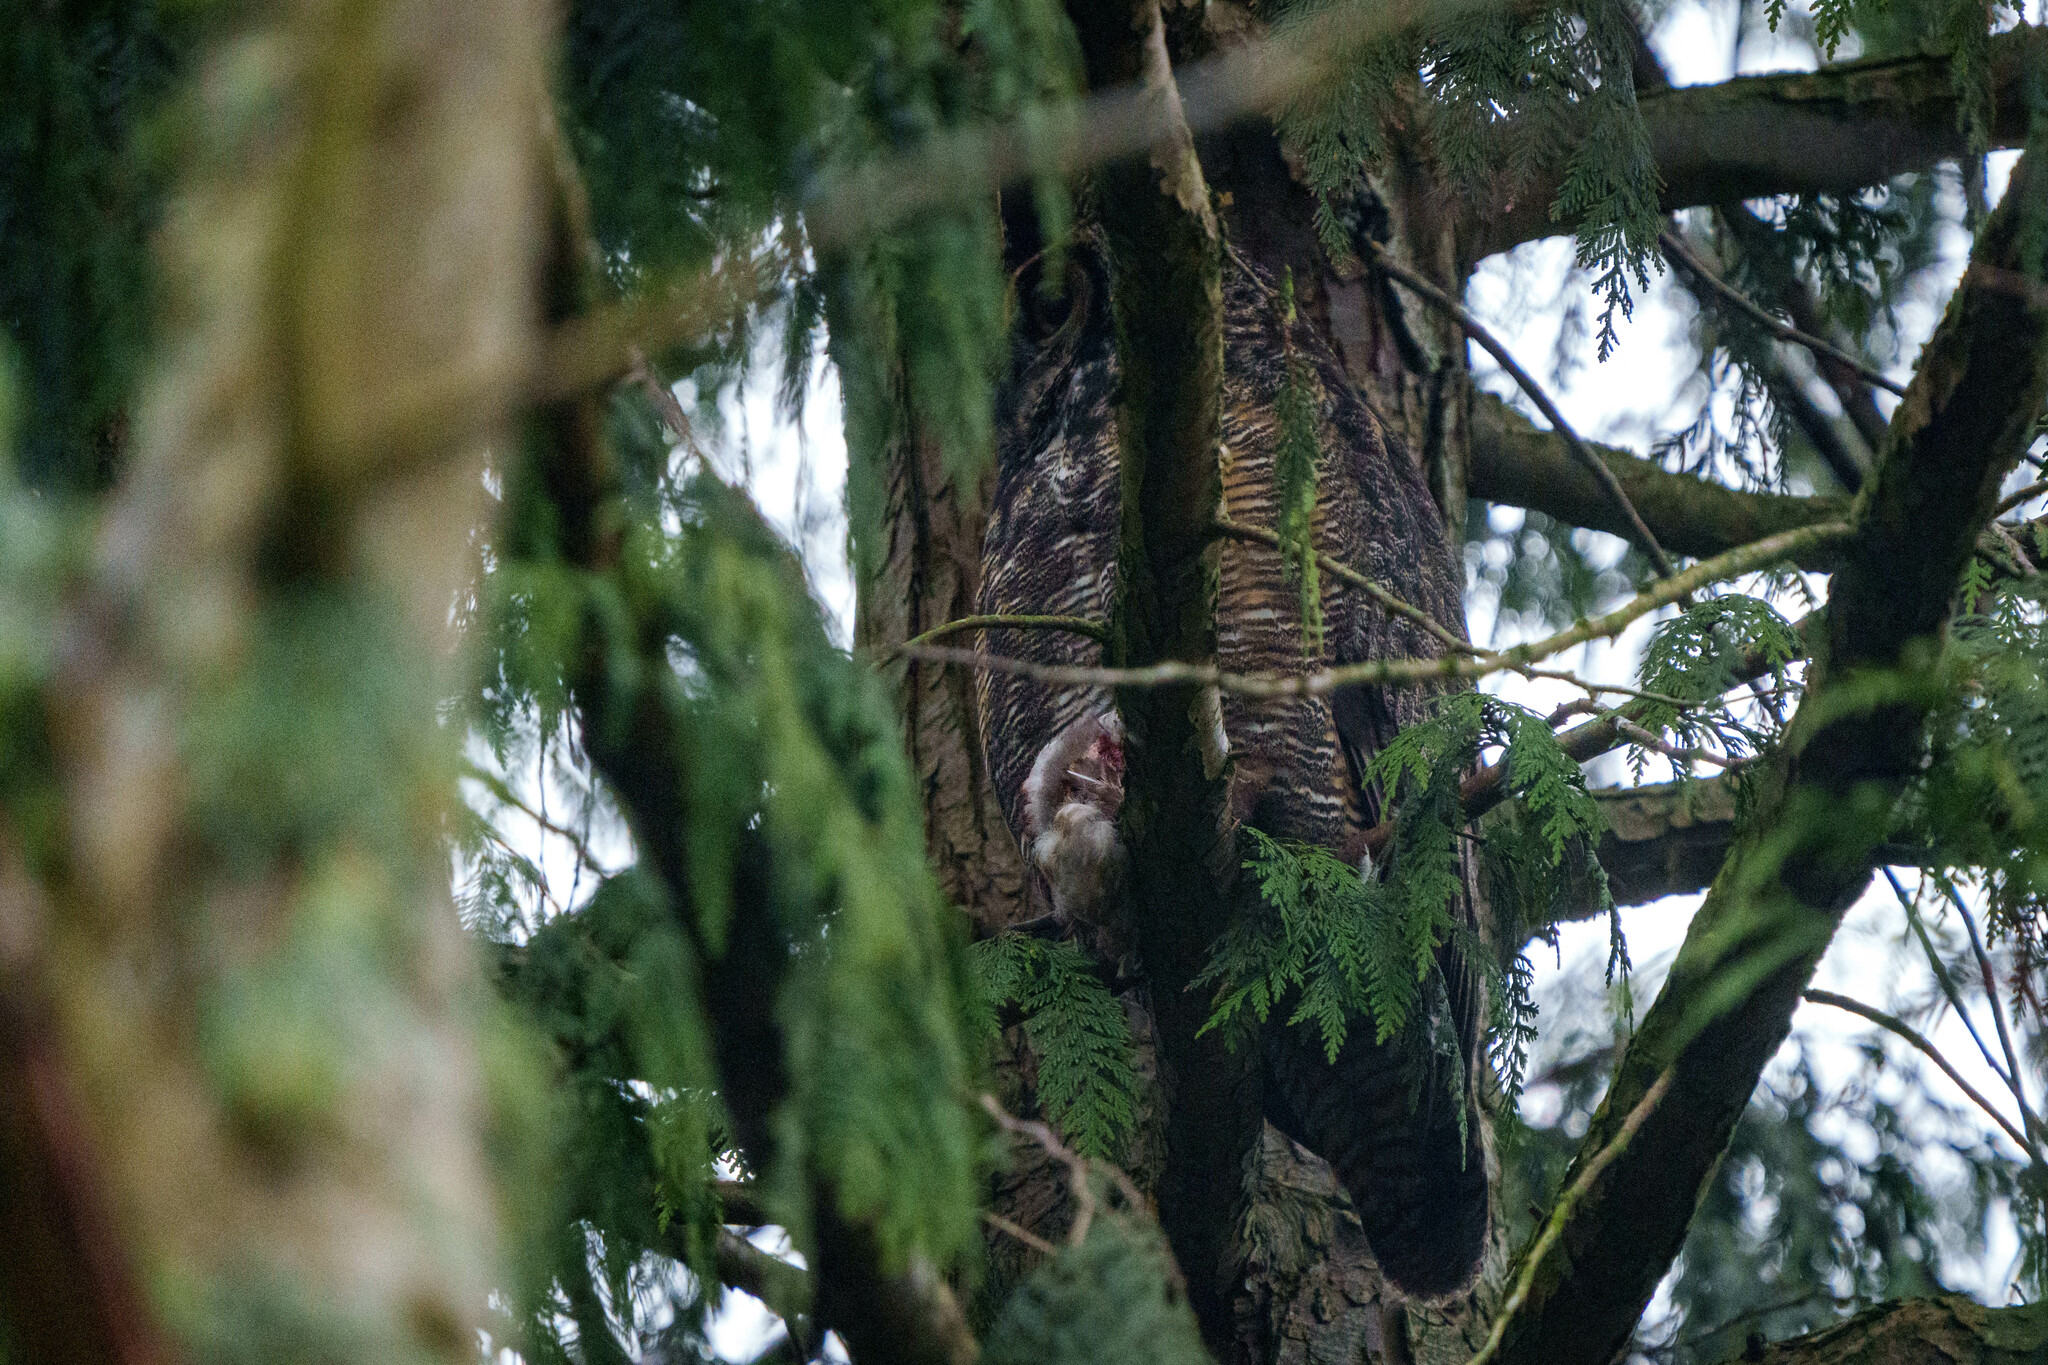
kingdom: Animalia
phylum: Chordata
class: Aves
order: Strigiformes
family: Strigidae
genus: Bubo
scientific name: Bubo virginianus
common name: Great horned owl
